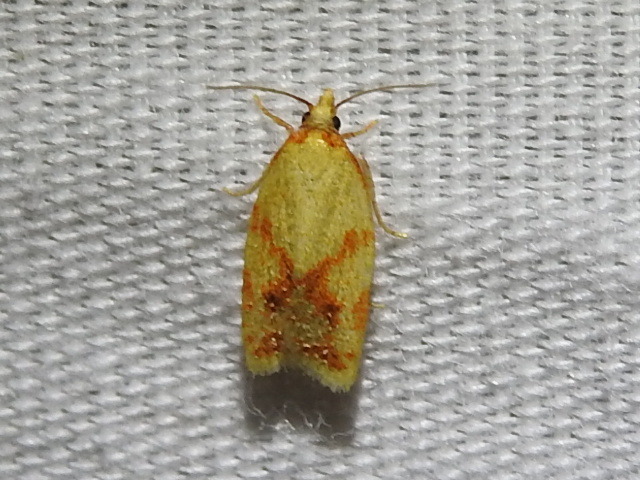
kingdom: Animalia
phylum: Arthropoda
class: Insecta
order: Lepidoptera
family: Tortricidae
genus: Sparganothis
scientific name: Sparganothis sulfureana
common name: Sparganothis fruitworm moth
